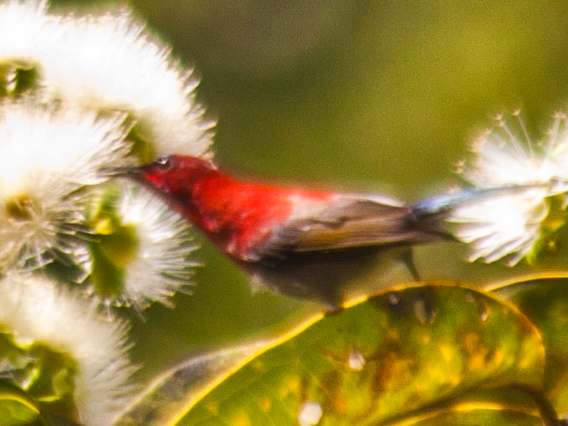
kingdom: Animalia
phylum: Chordata
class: Aves
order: Passeriformes
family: Nectariniidae
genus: Aethopyga
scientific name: Aethopyga siparaja
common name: Crimson sunbird
